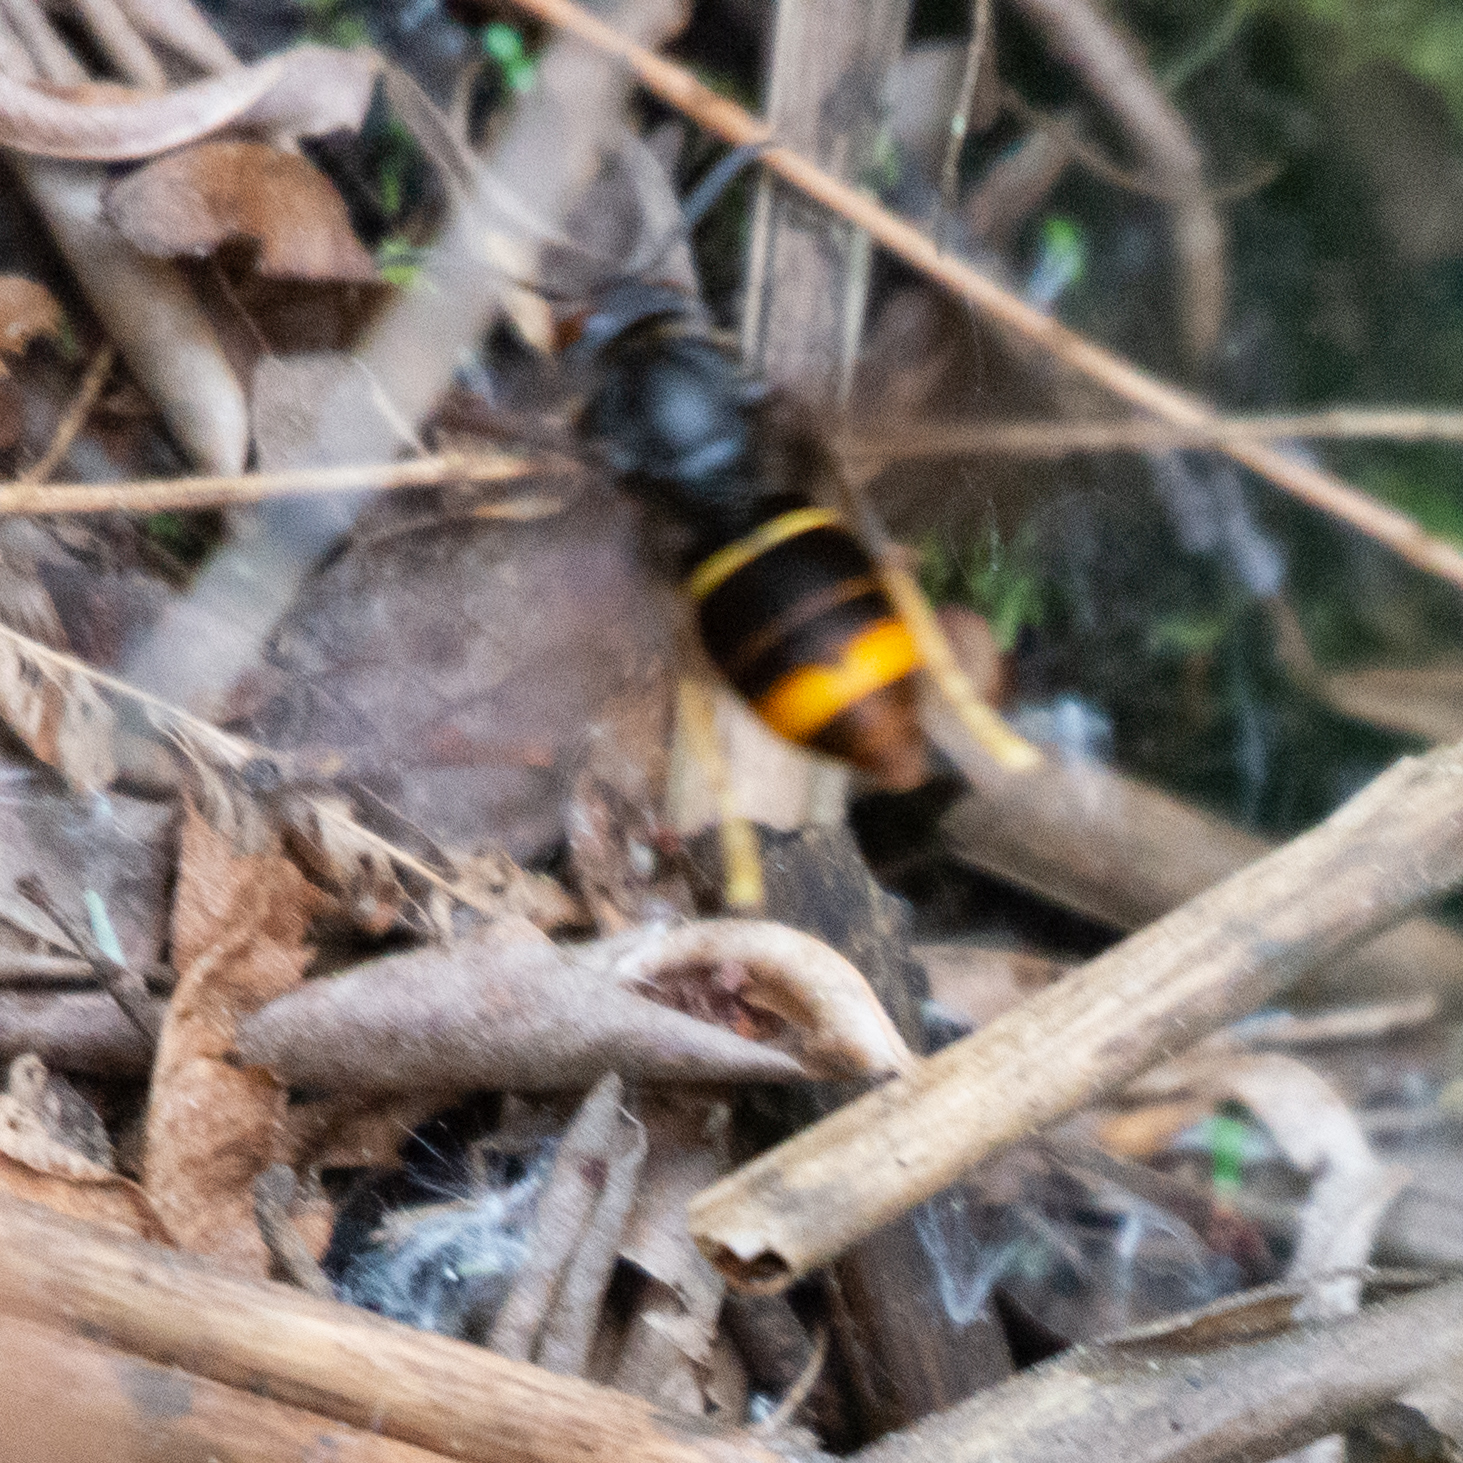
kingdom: Animalia
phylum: Arthropoda
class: Insecta
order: Hymenoptera
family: Vespidae
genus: Vespa
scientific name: Vespa velutina
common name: Asian hornet
